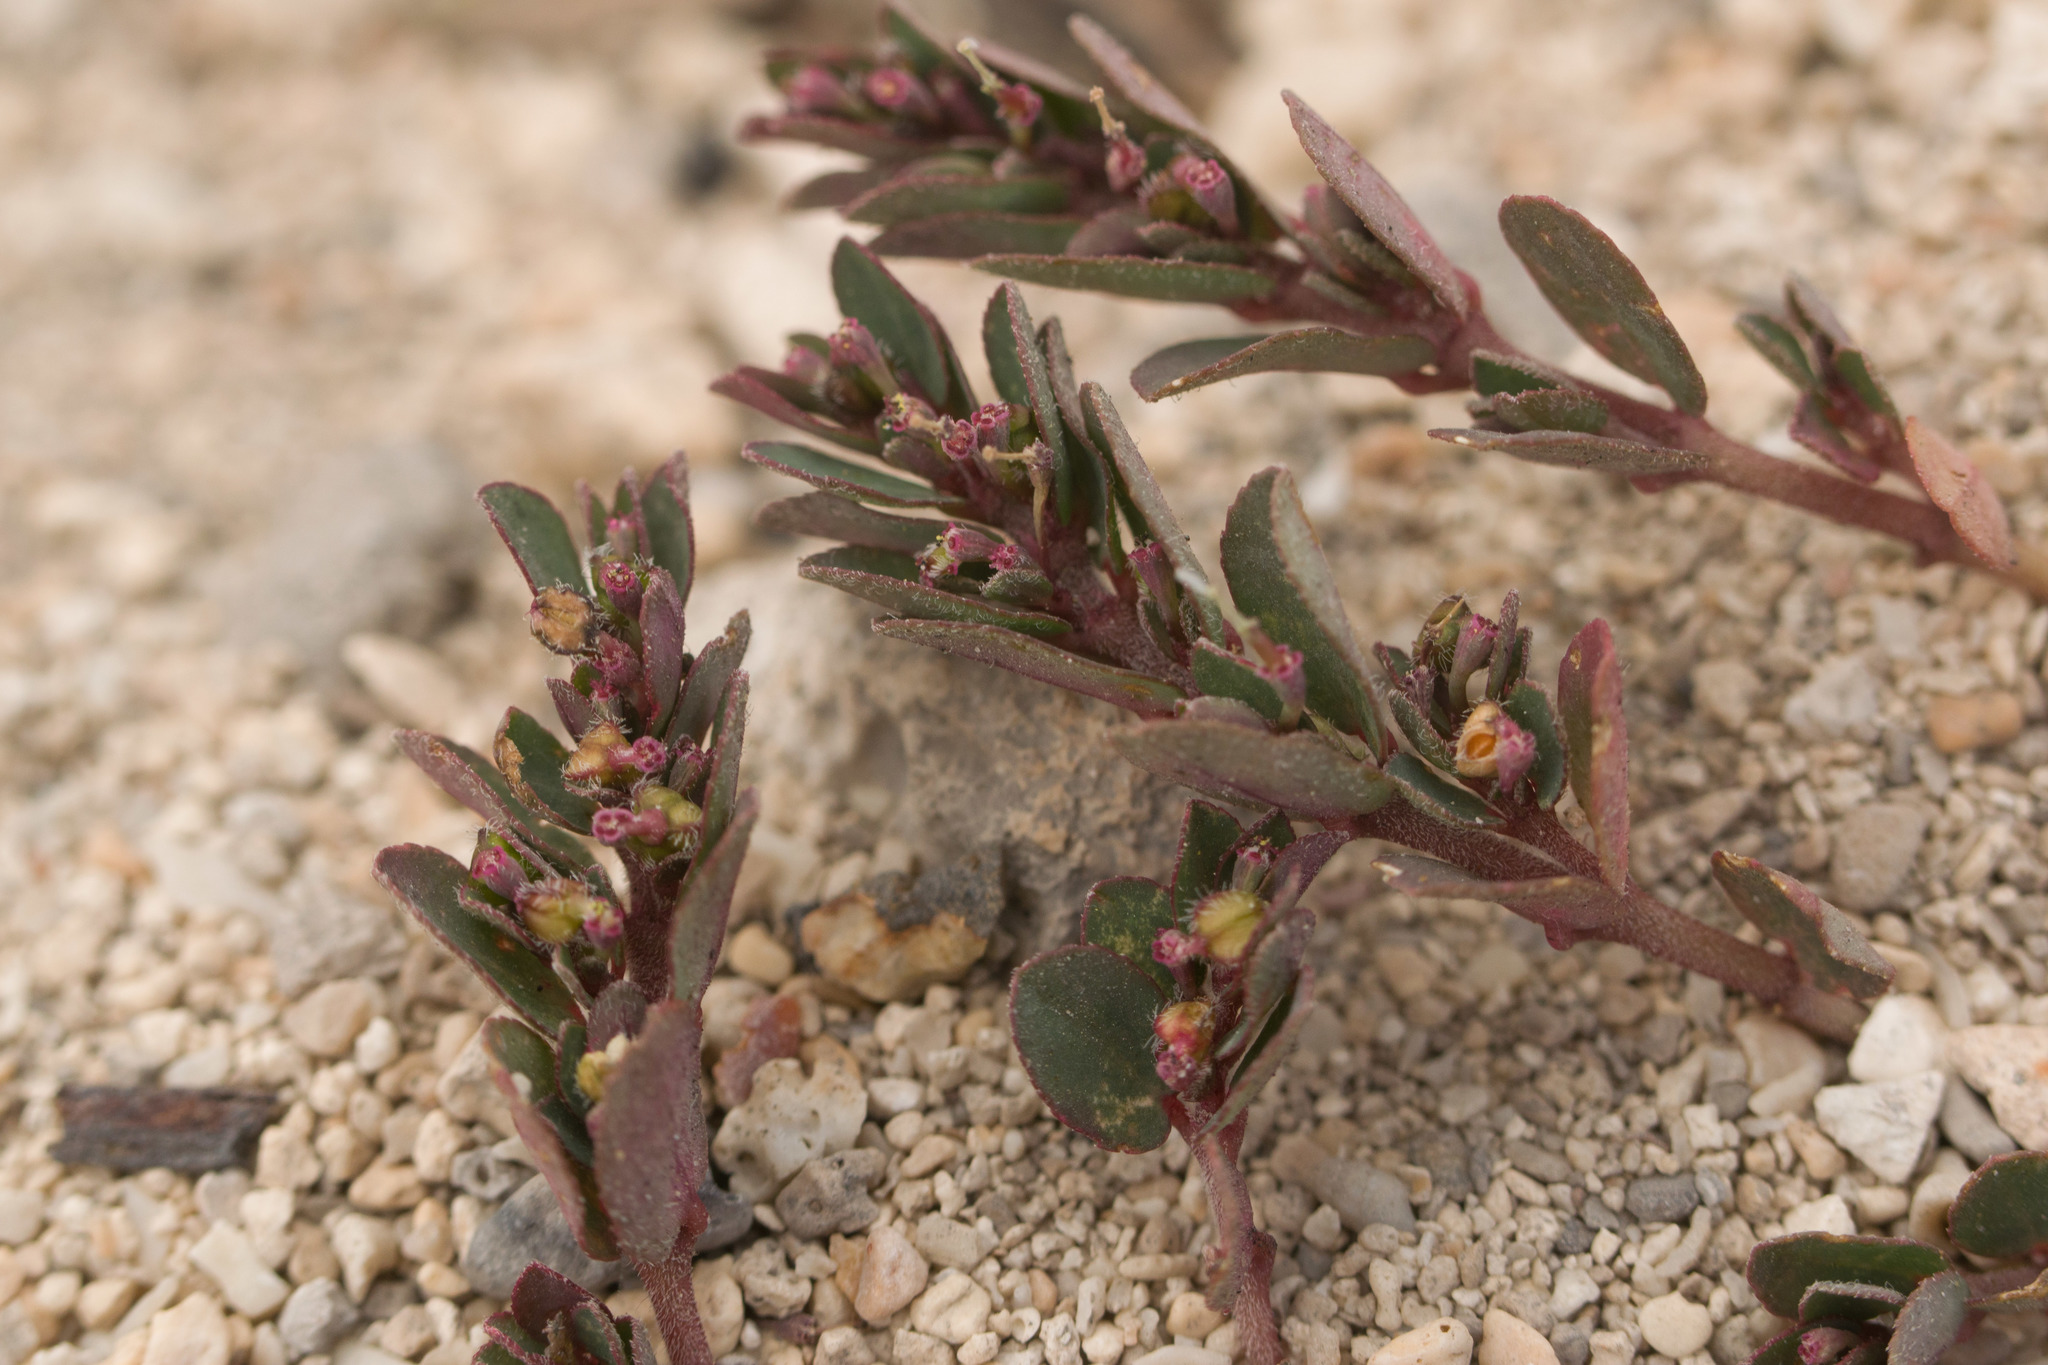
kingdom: Plantae
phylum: Tracheophyta
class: Magnoliopsida
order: Malpighiales
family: Euphorbiaceae
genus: Euphorbia
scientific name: Euphorbia prostrata
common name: Prostrate sandmat
